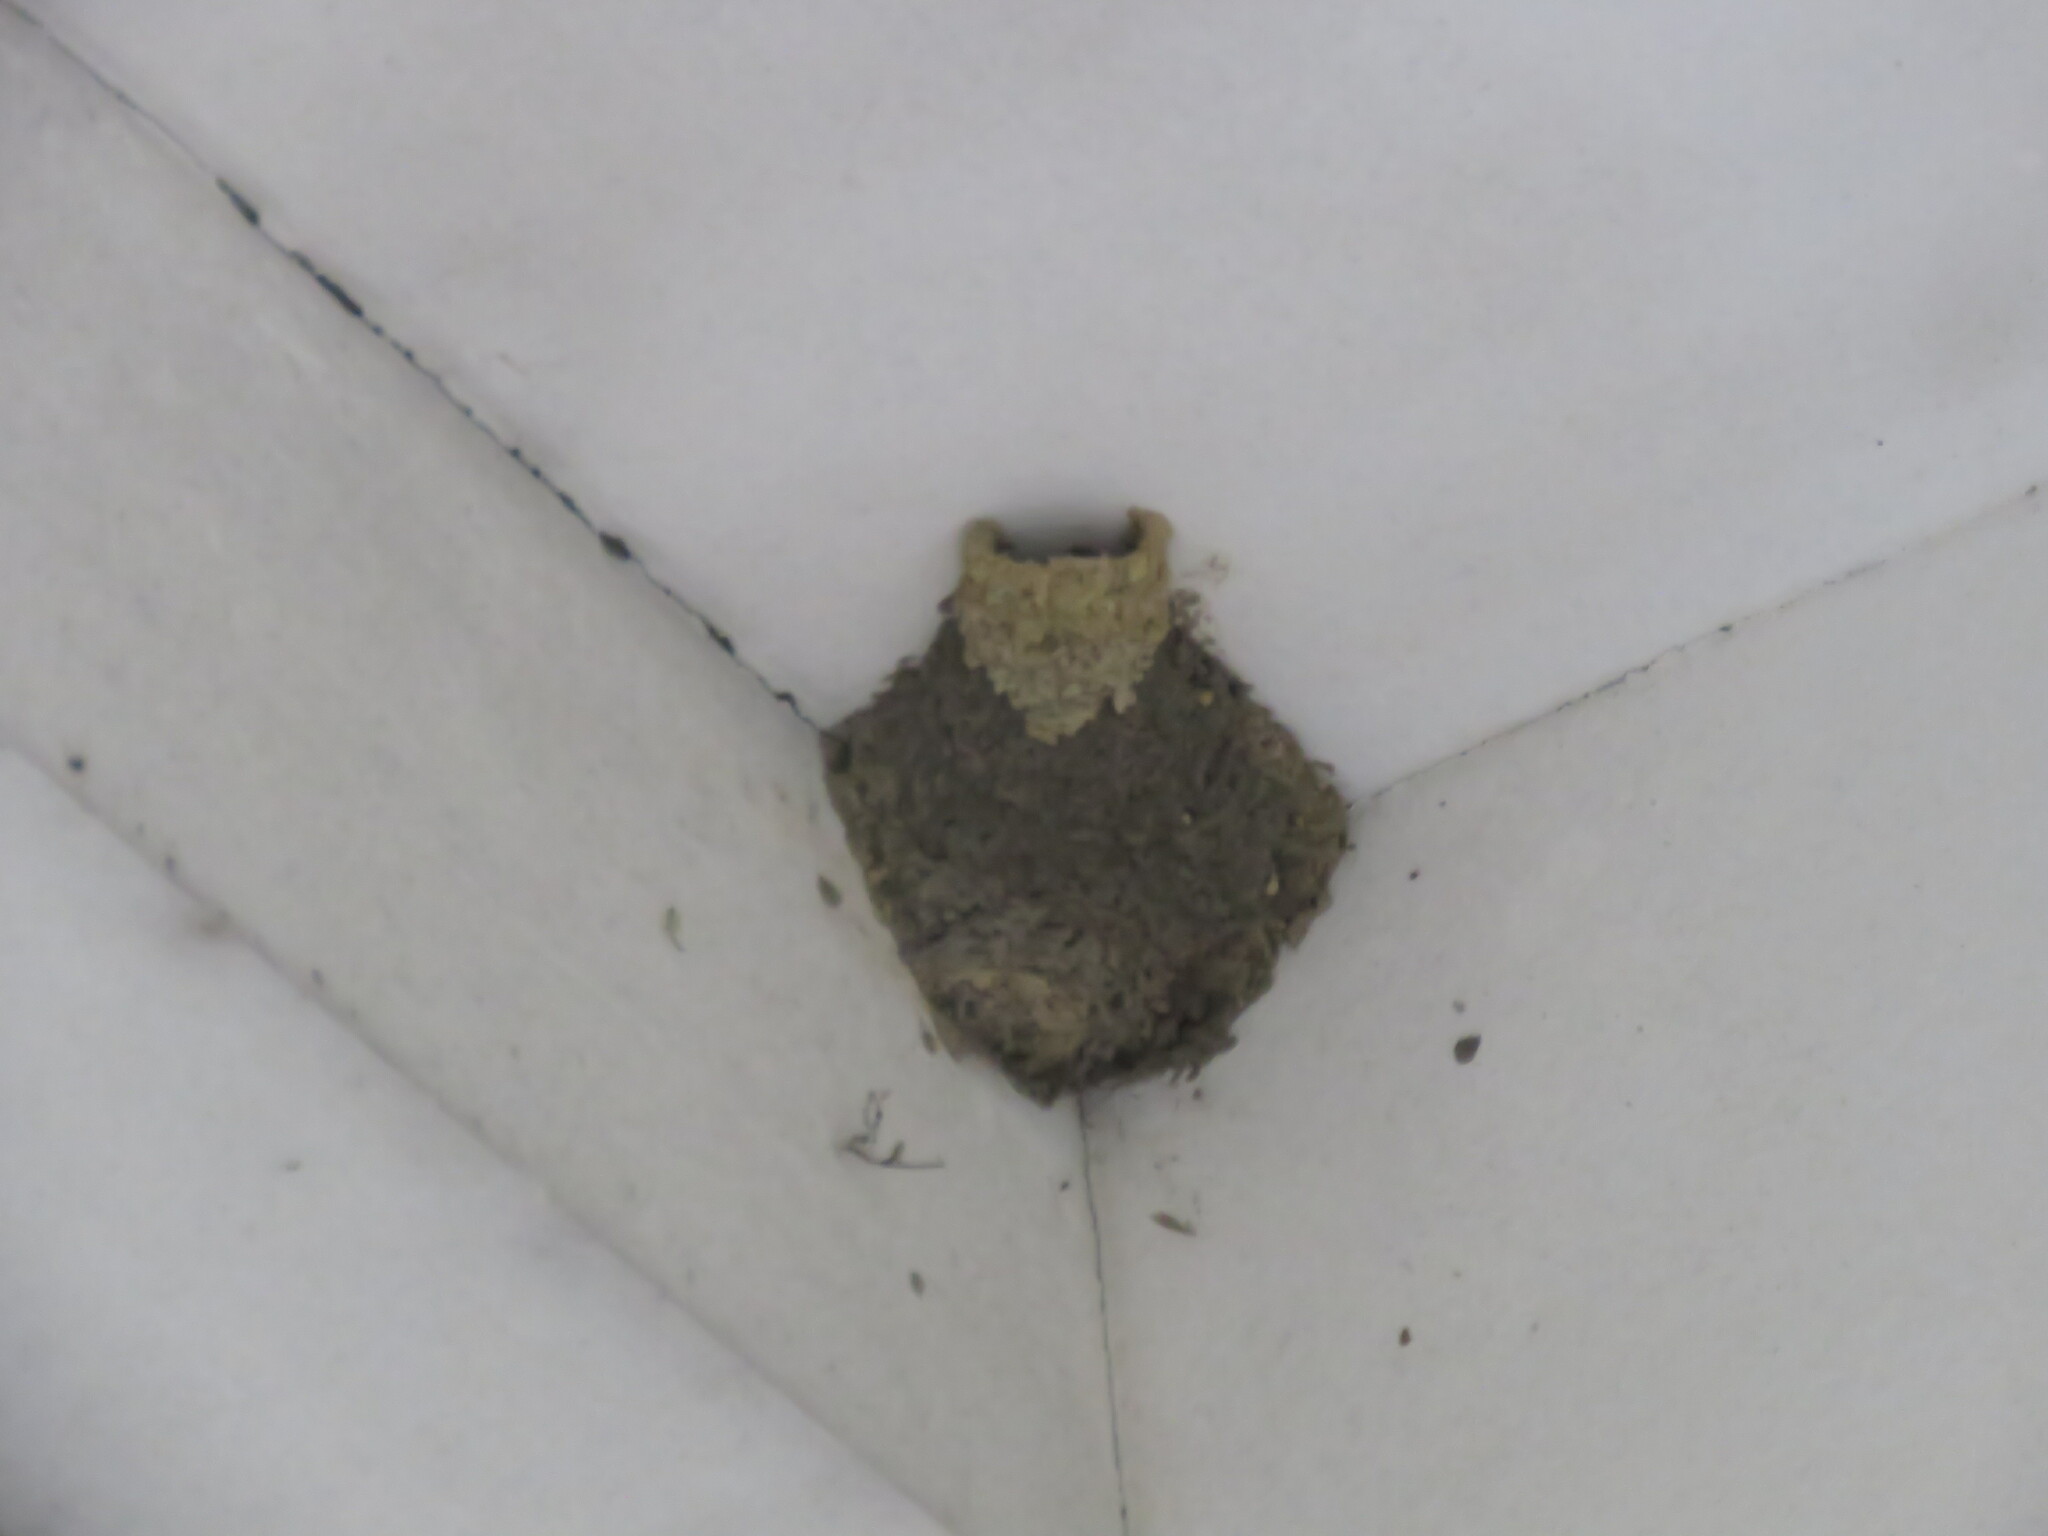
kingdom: Animalia
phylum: Chordata
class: Aves
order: Passeriformes
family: Hirundinidae
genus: Cecropis
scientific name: Cecropis daurica
